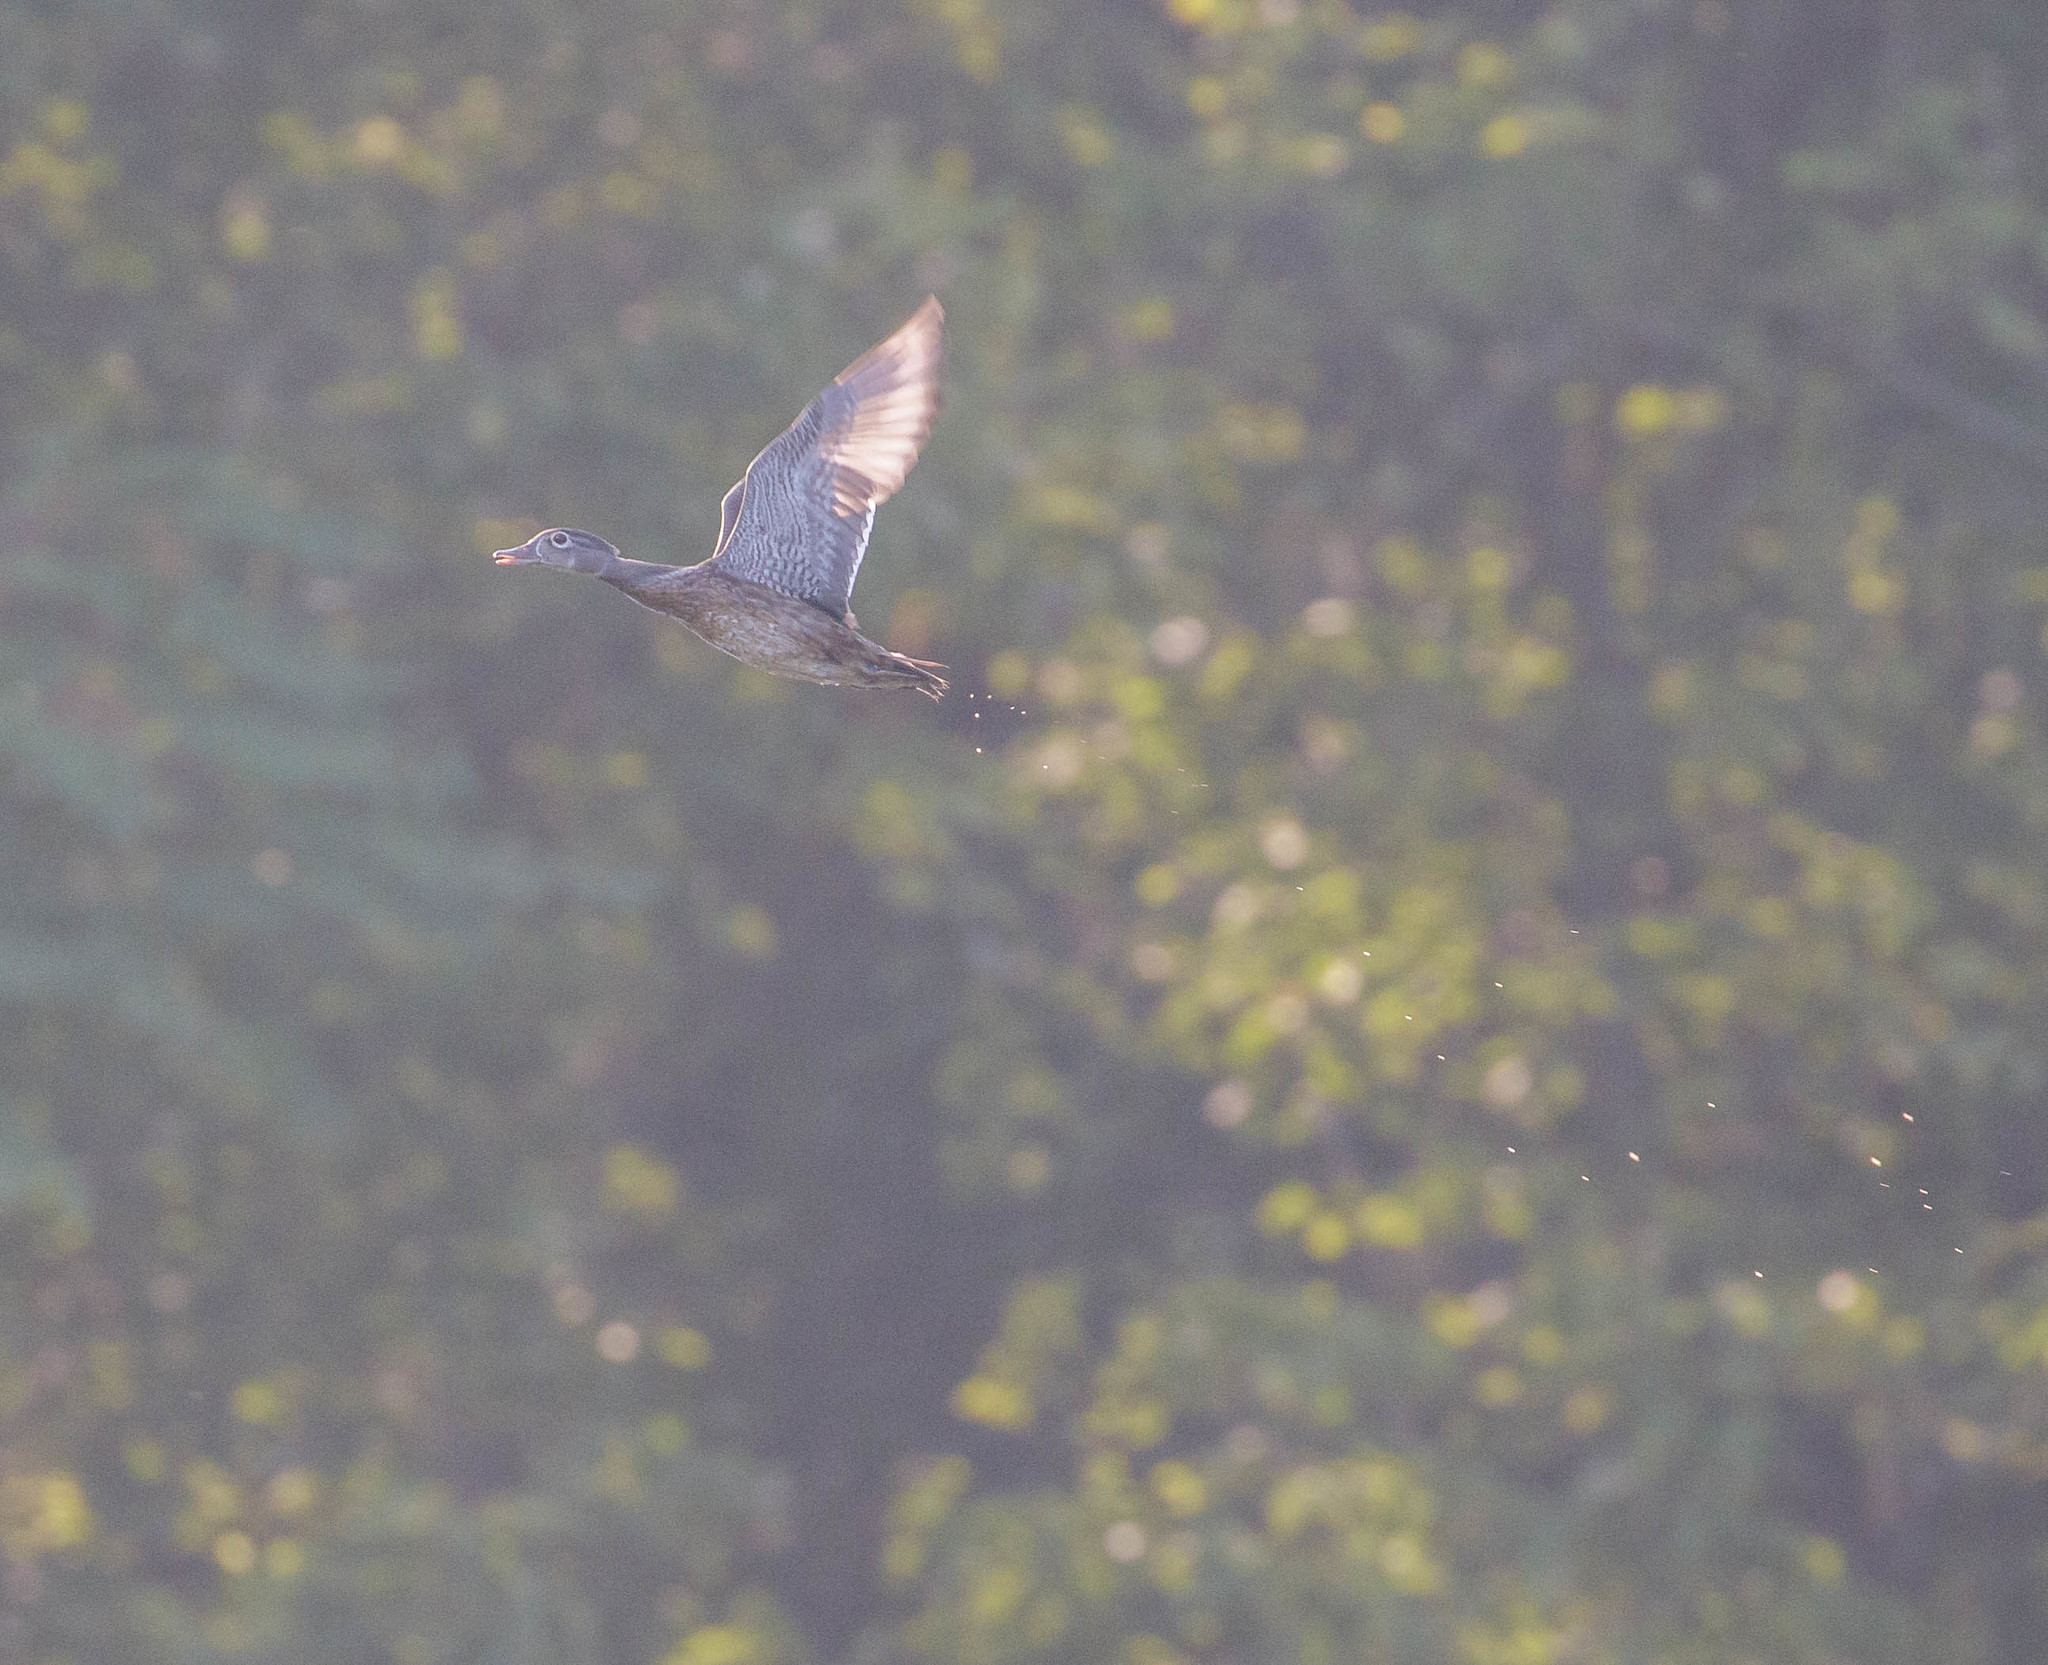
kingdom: Animalia
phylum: Chordata
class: Aves
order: Anseriformes
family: Anatidae
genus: Aix
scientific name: Aix sponsa
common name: Wood duck
